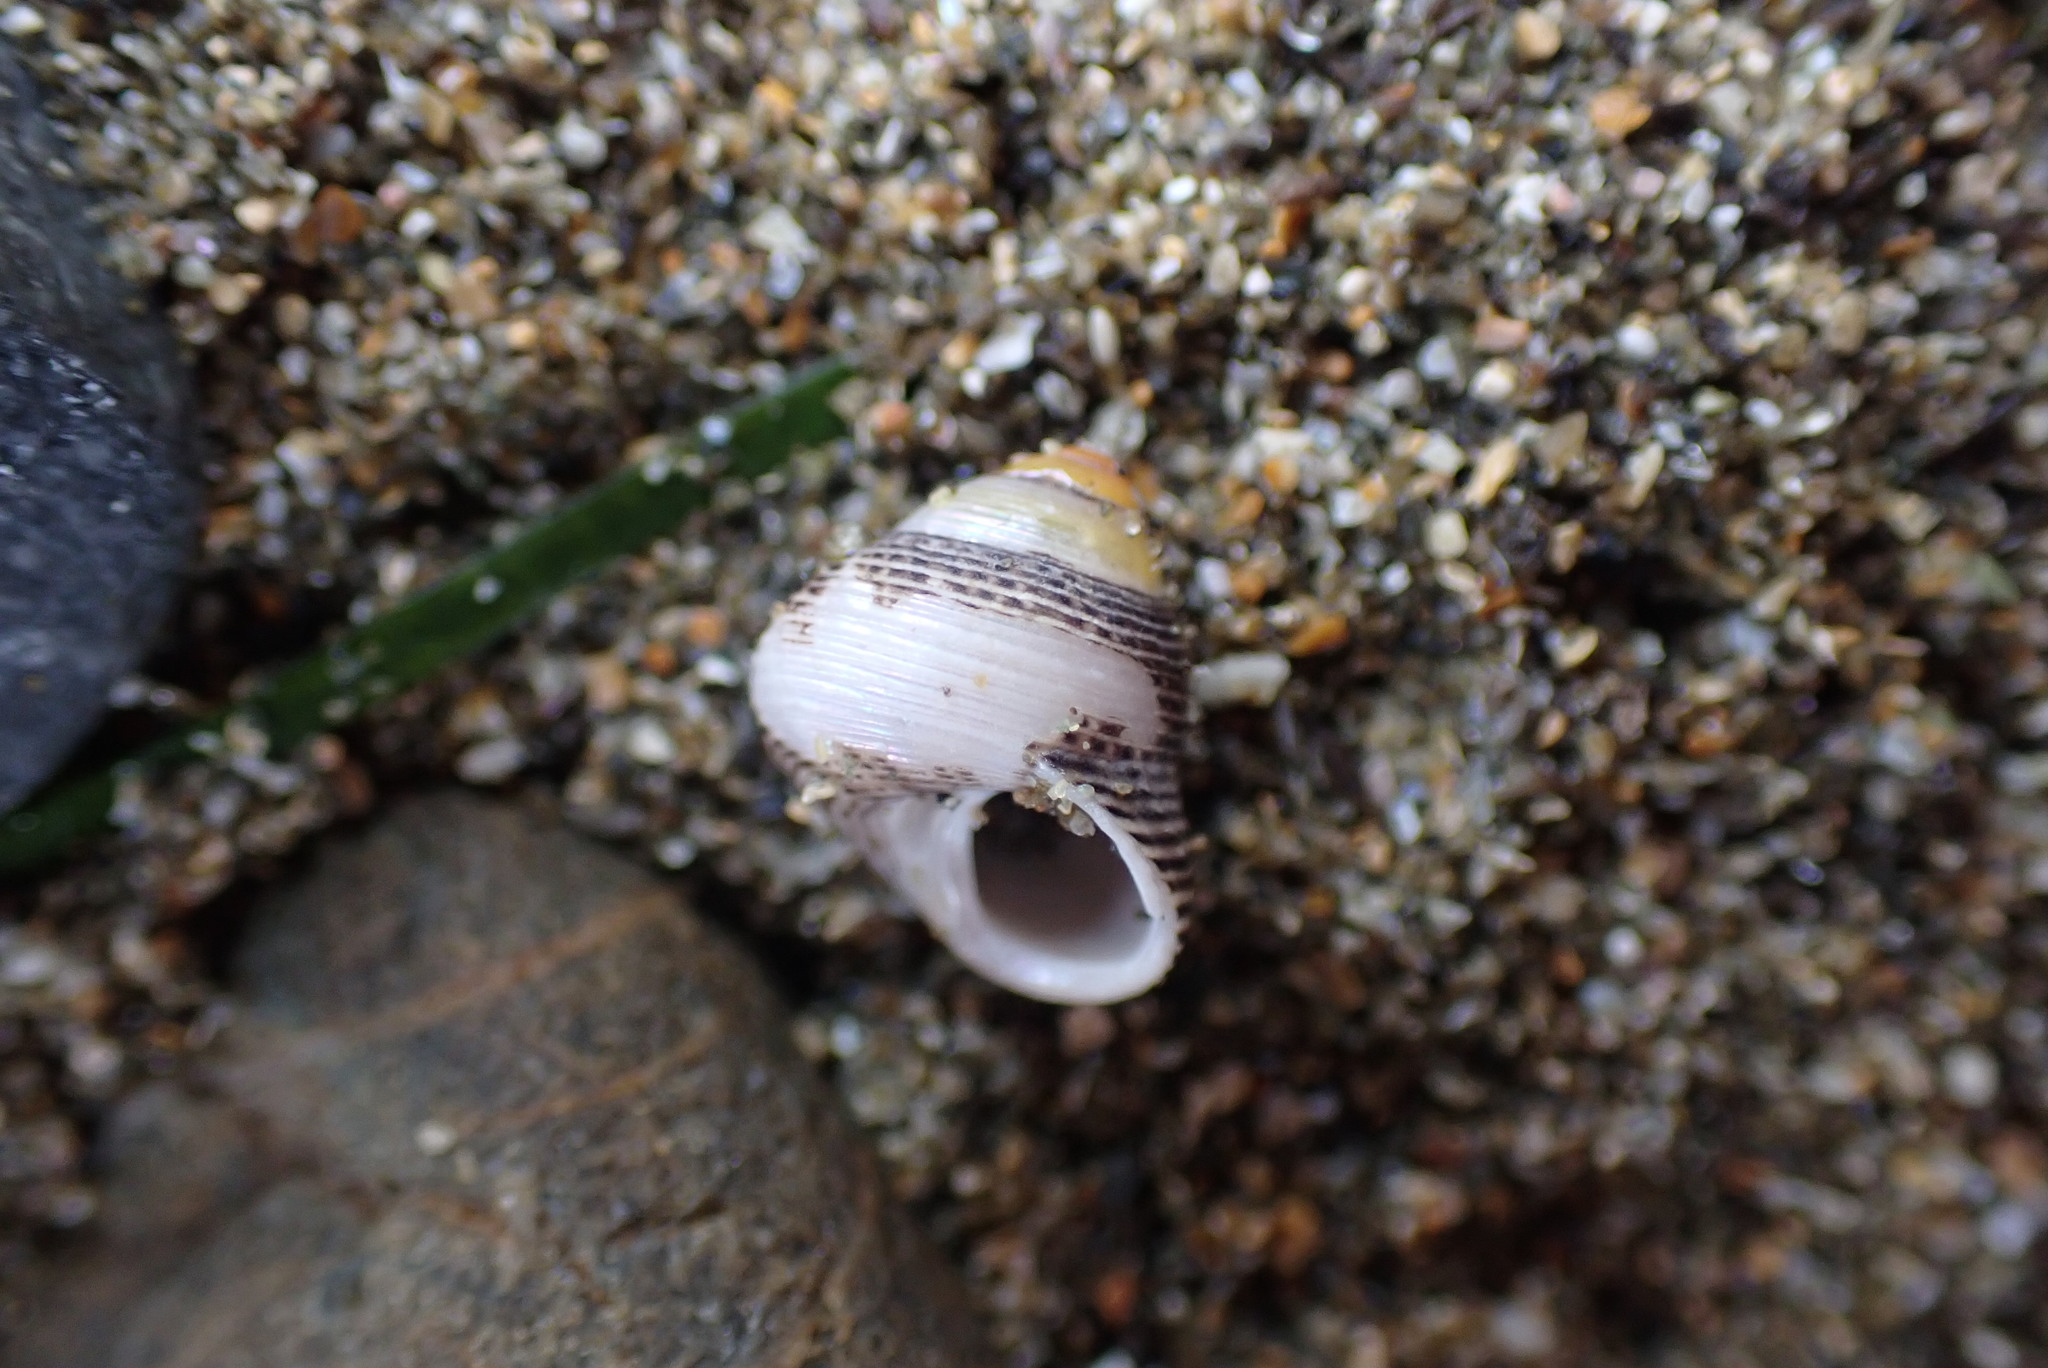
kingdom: Animalia
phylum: Mollusca
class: Gastropoda
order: Trochida
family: Trochidae
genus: Micrelenchus
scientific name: Micrelenchus huttonii
